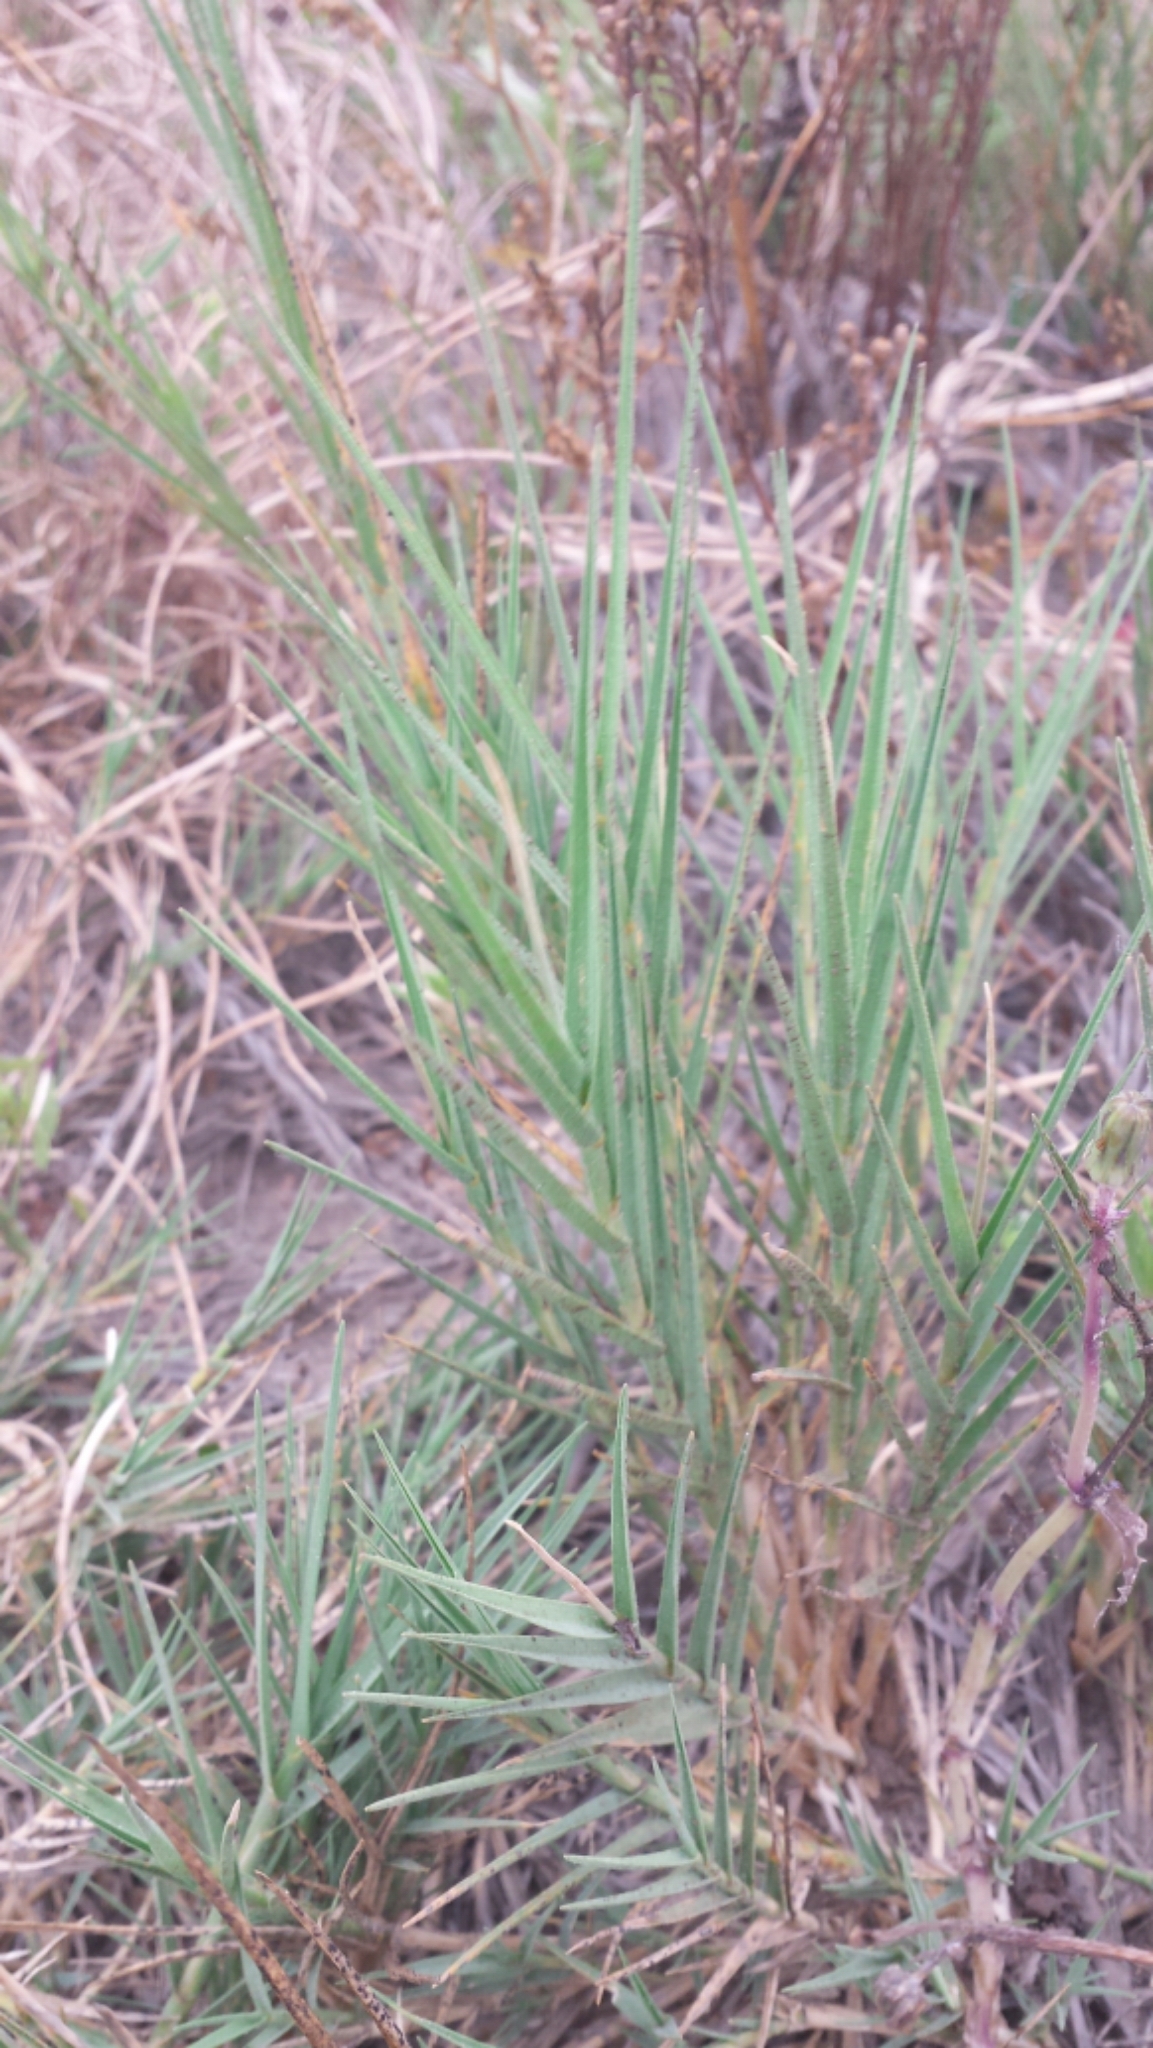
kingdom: Plantae
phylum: Tracheophyta
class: Liliopsida
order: Poales
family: Poaceae
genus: Distichlis
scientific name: Distichlis spicata
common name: Saltgrass
